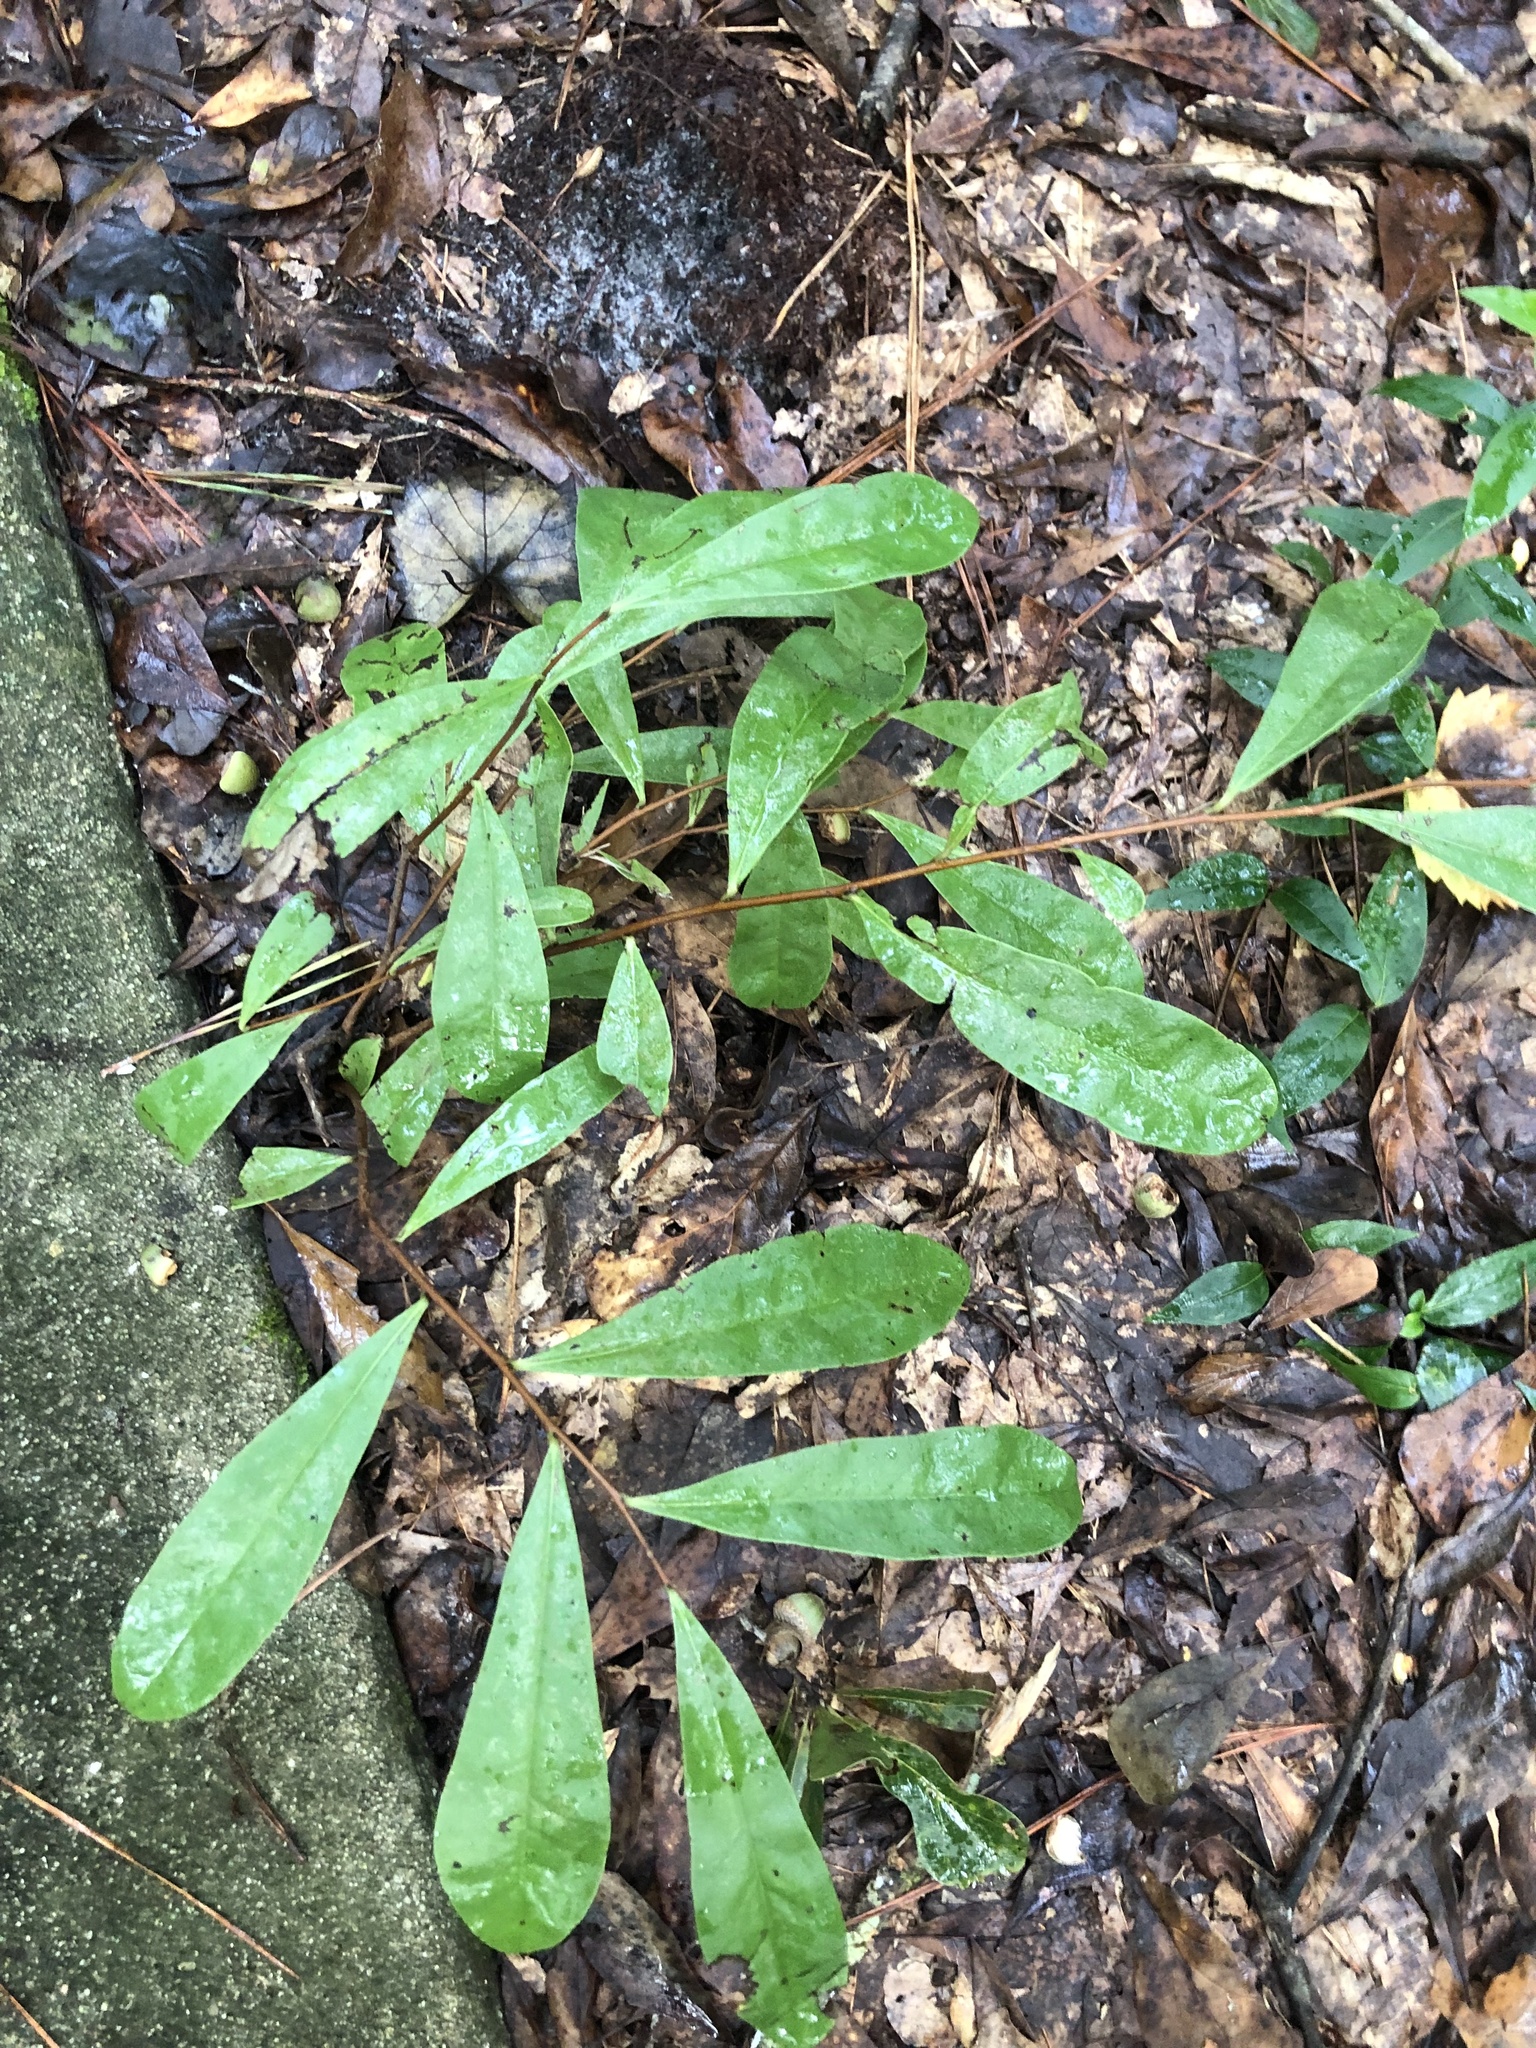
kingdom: Plantae
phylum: Tracheophyta
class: Magnoliopsida
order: Magnoliales
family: Annonaceae
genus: Asimina
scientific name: Asimina pygmaea
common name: Dwarf pawpaw
